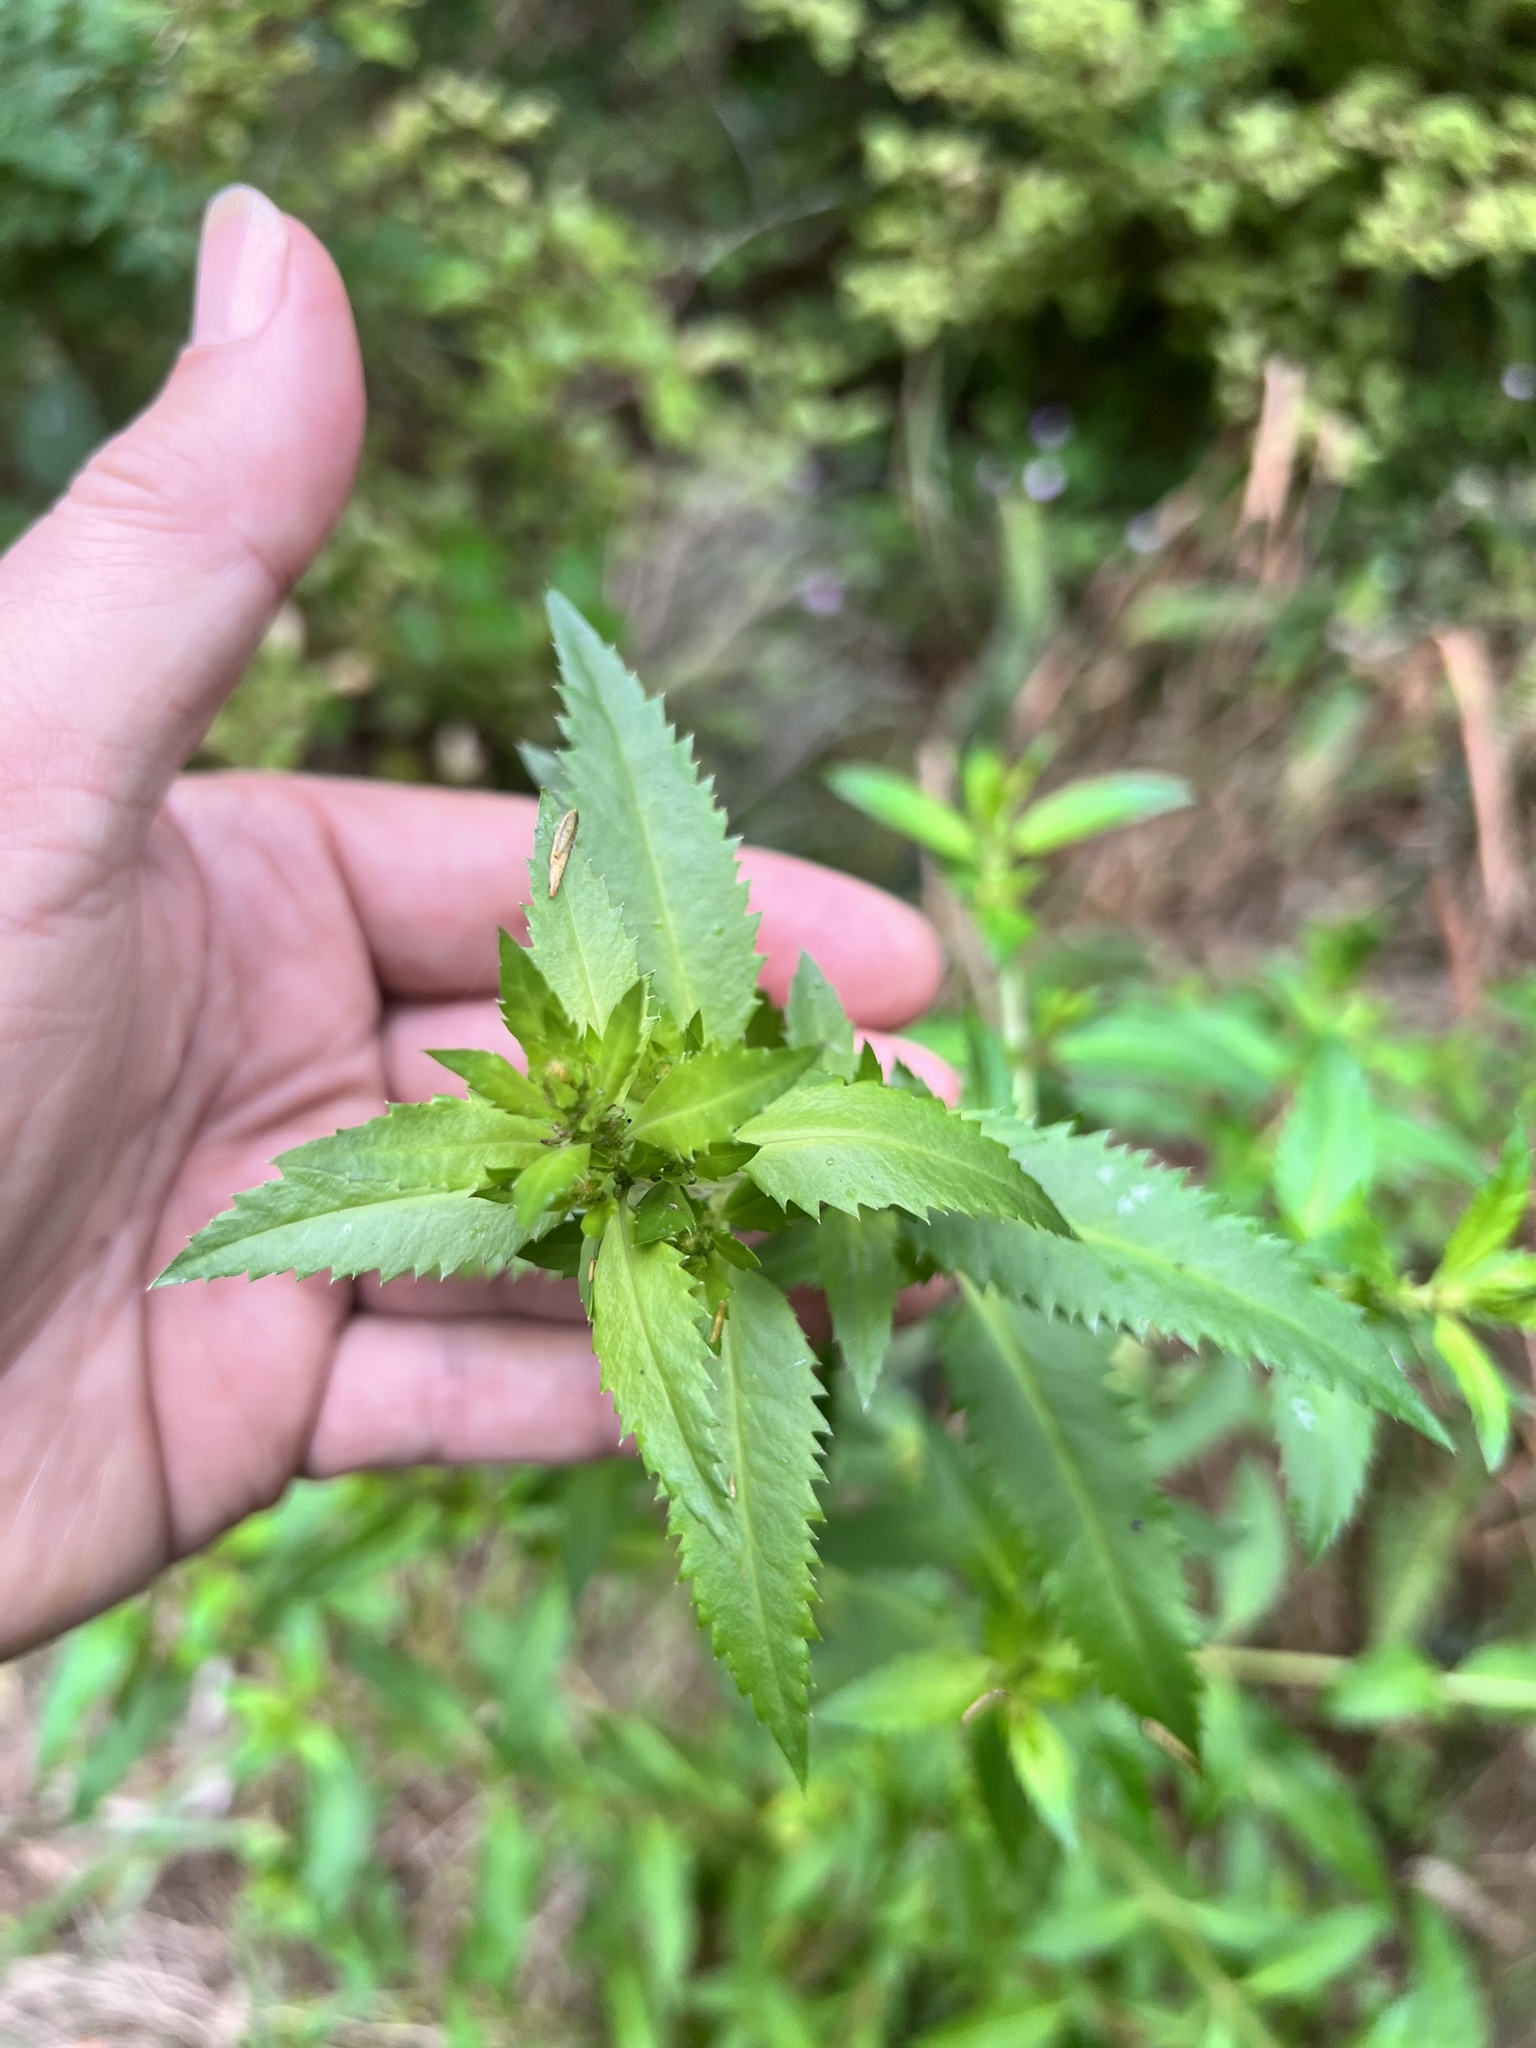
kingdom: Plantae
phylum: Tracheophyta
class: Magnoliopsida
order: Saxifragales
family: Haloragaceae
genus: Haloragis
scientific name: Haloragis erecta
